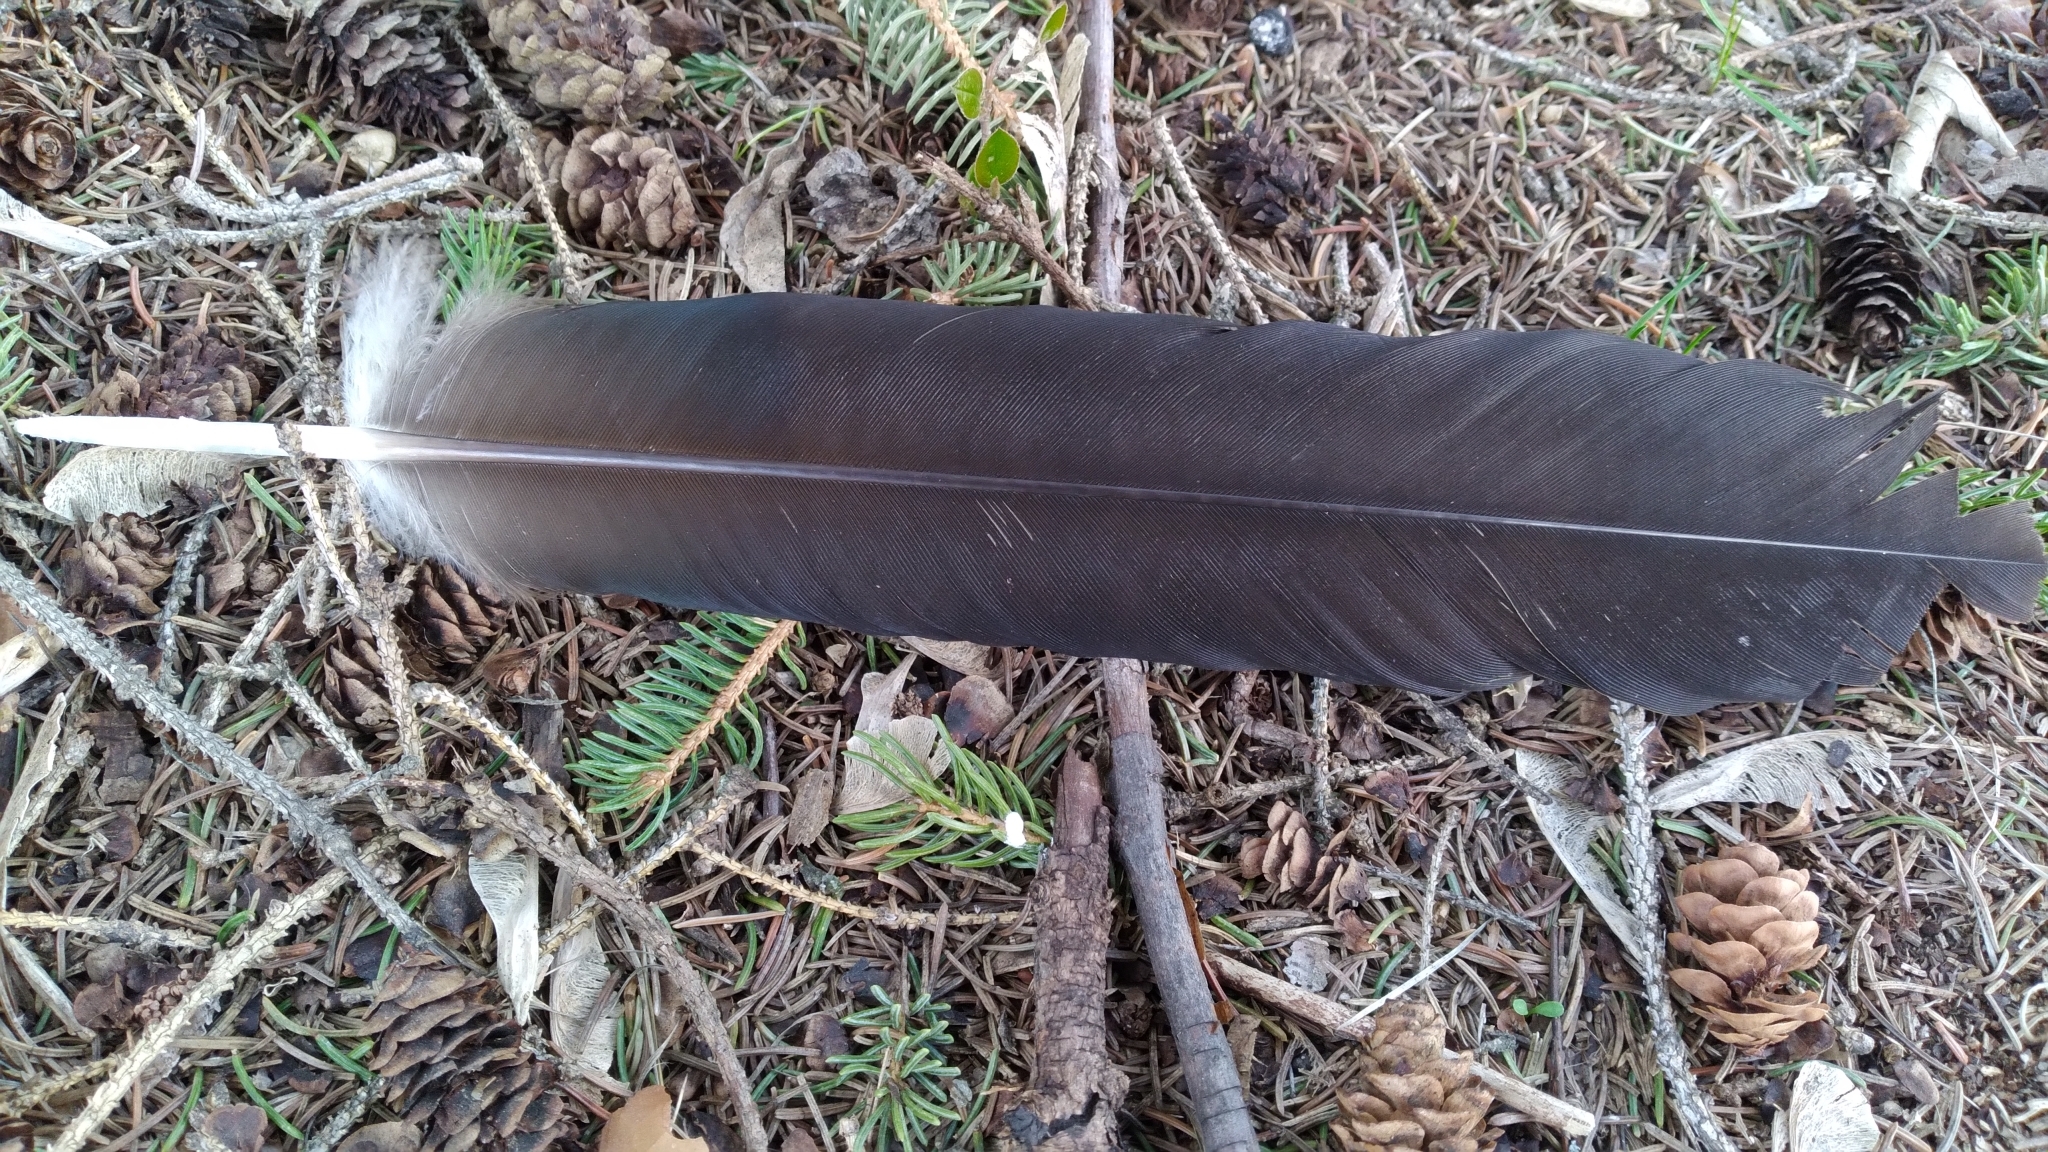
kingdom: Animalia
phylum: Chordata
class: Aves
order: Accipitriformes
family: Cathartidae
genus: Cathartes
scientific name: Cathartes aura
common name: Turkey vulture
